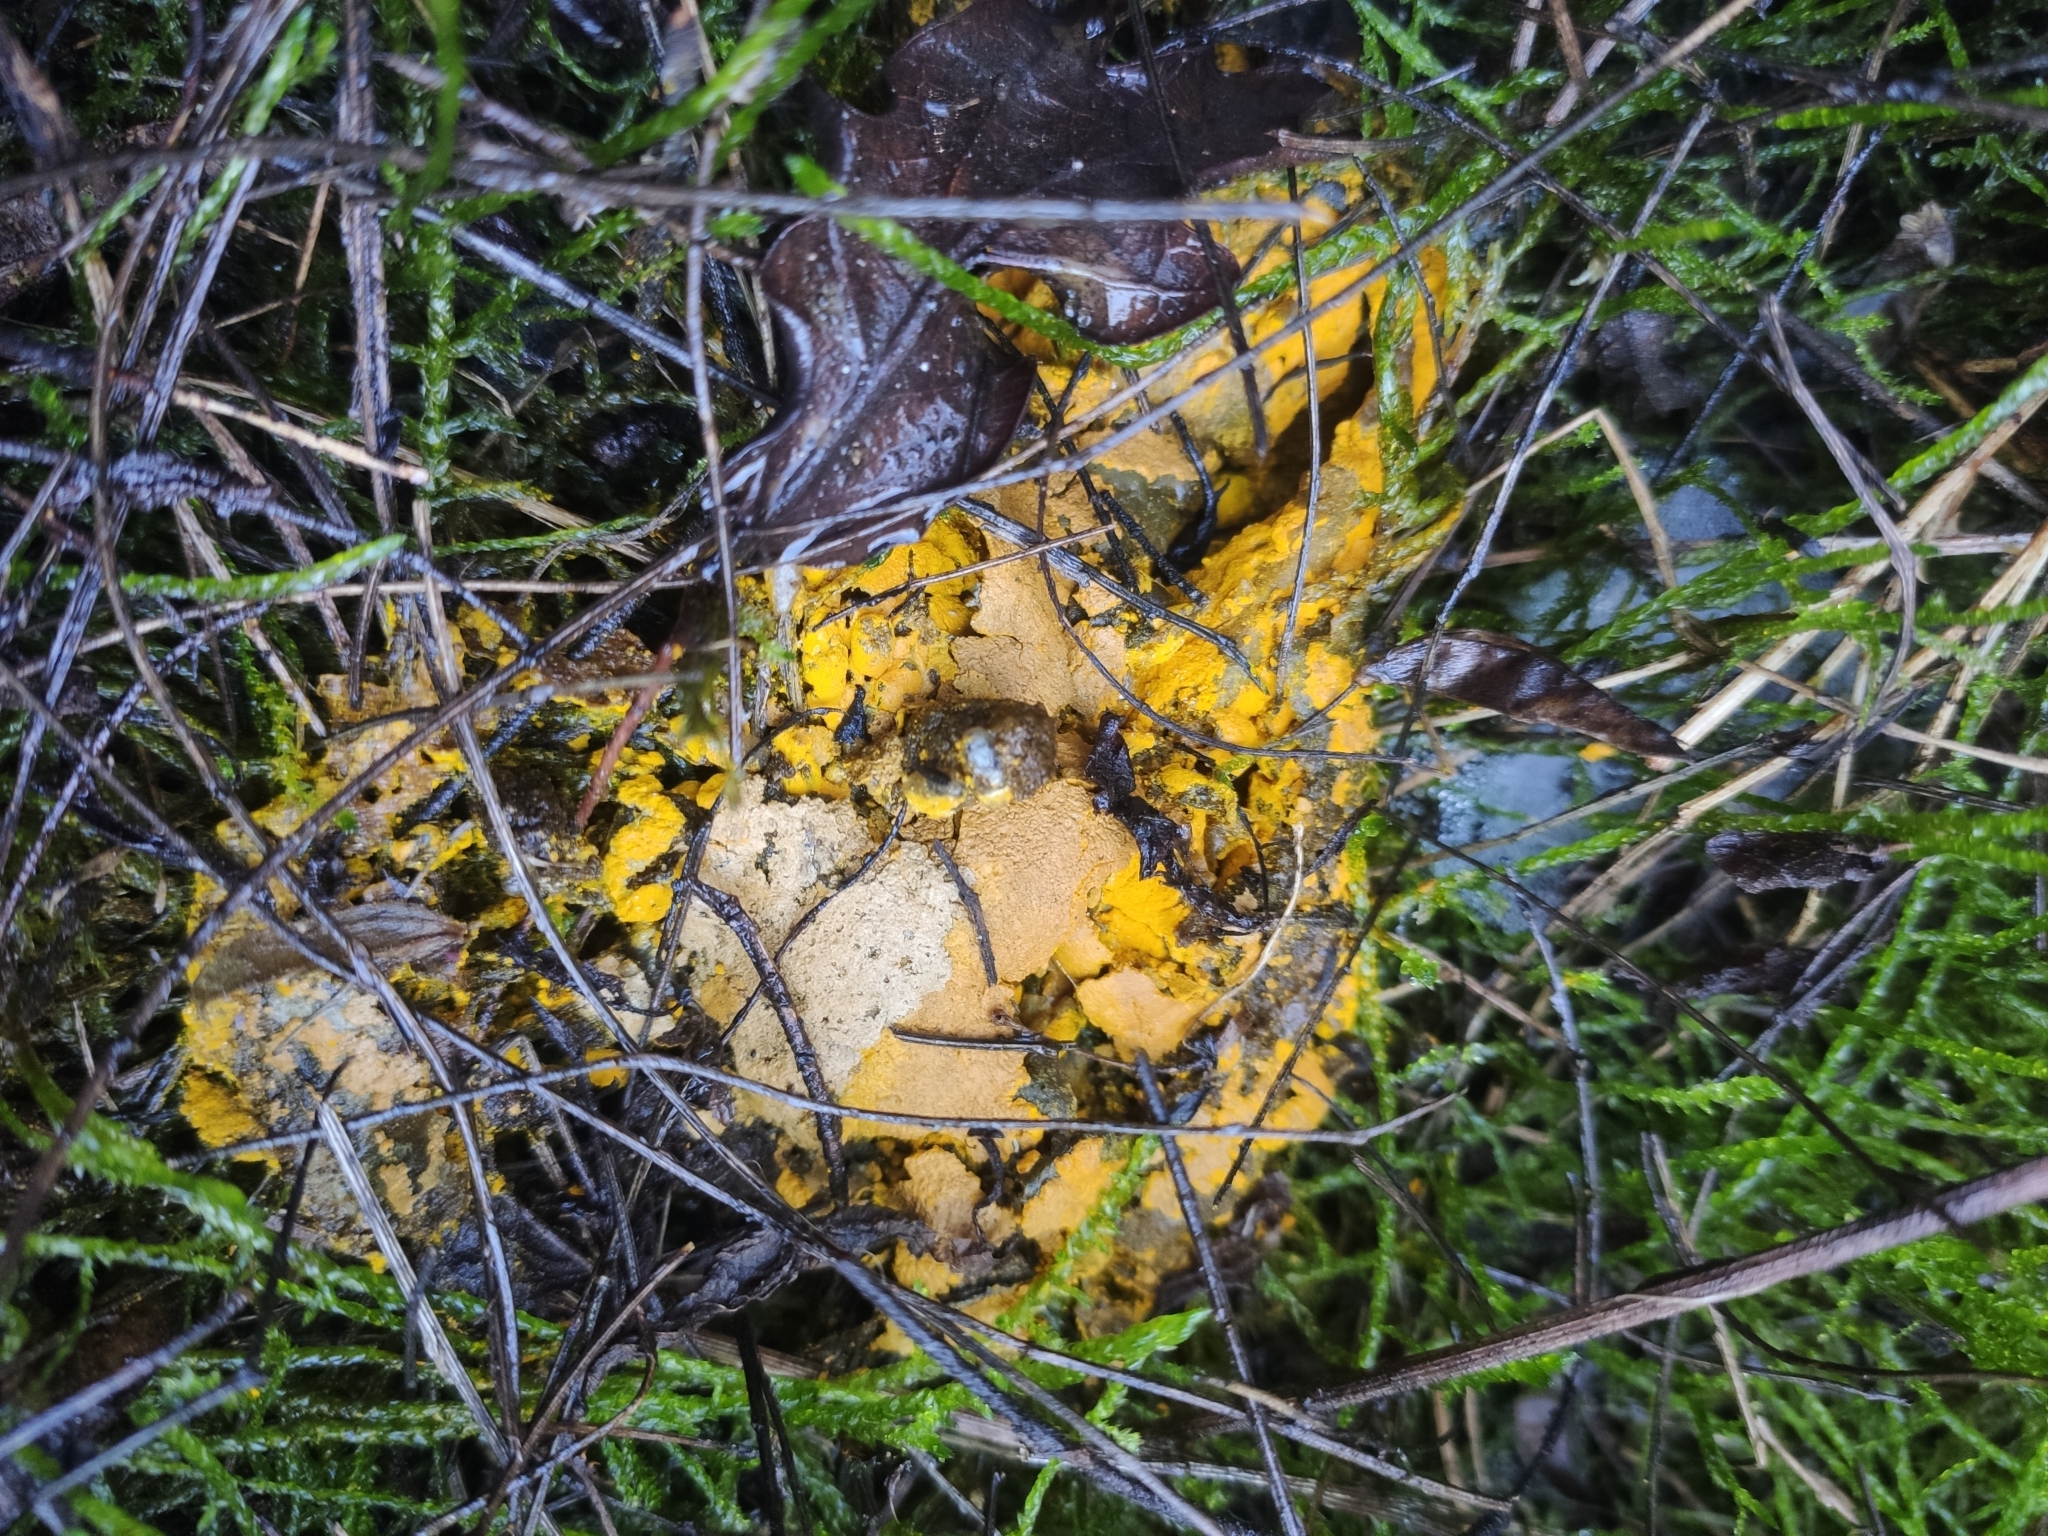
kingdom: Protozoa
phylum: Mycetozoa
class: Myxomycetes
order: Physarales
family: Physaraceae
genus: Fuligo
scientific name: Fuligo septica
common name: Dog vomit slime mold
